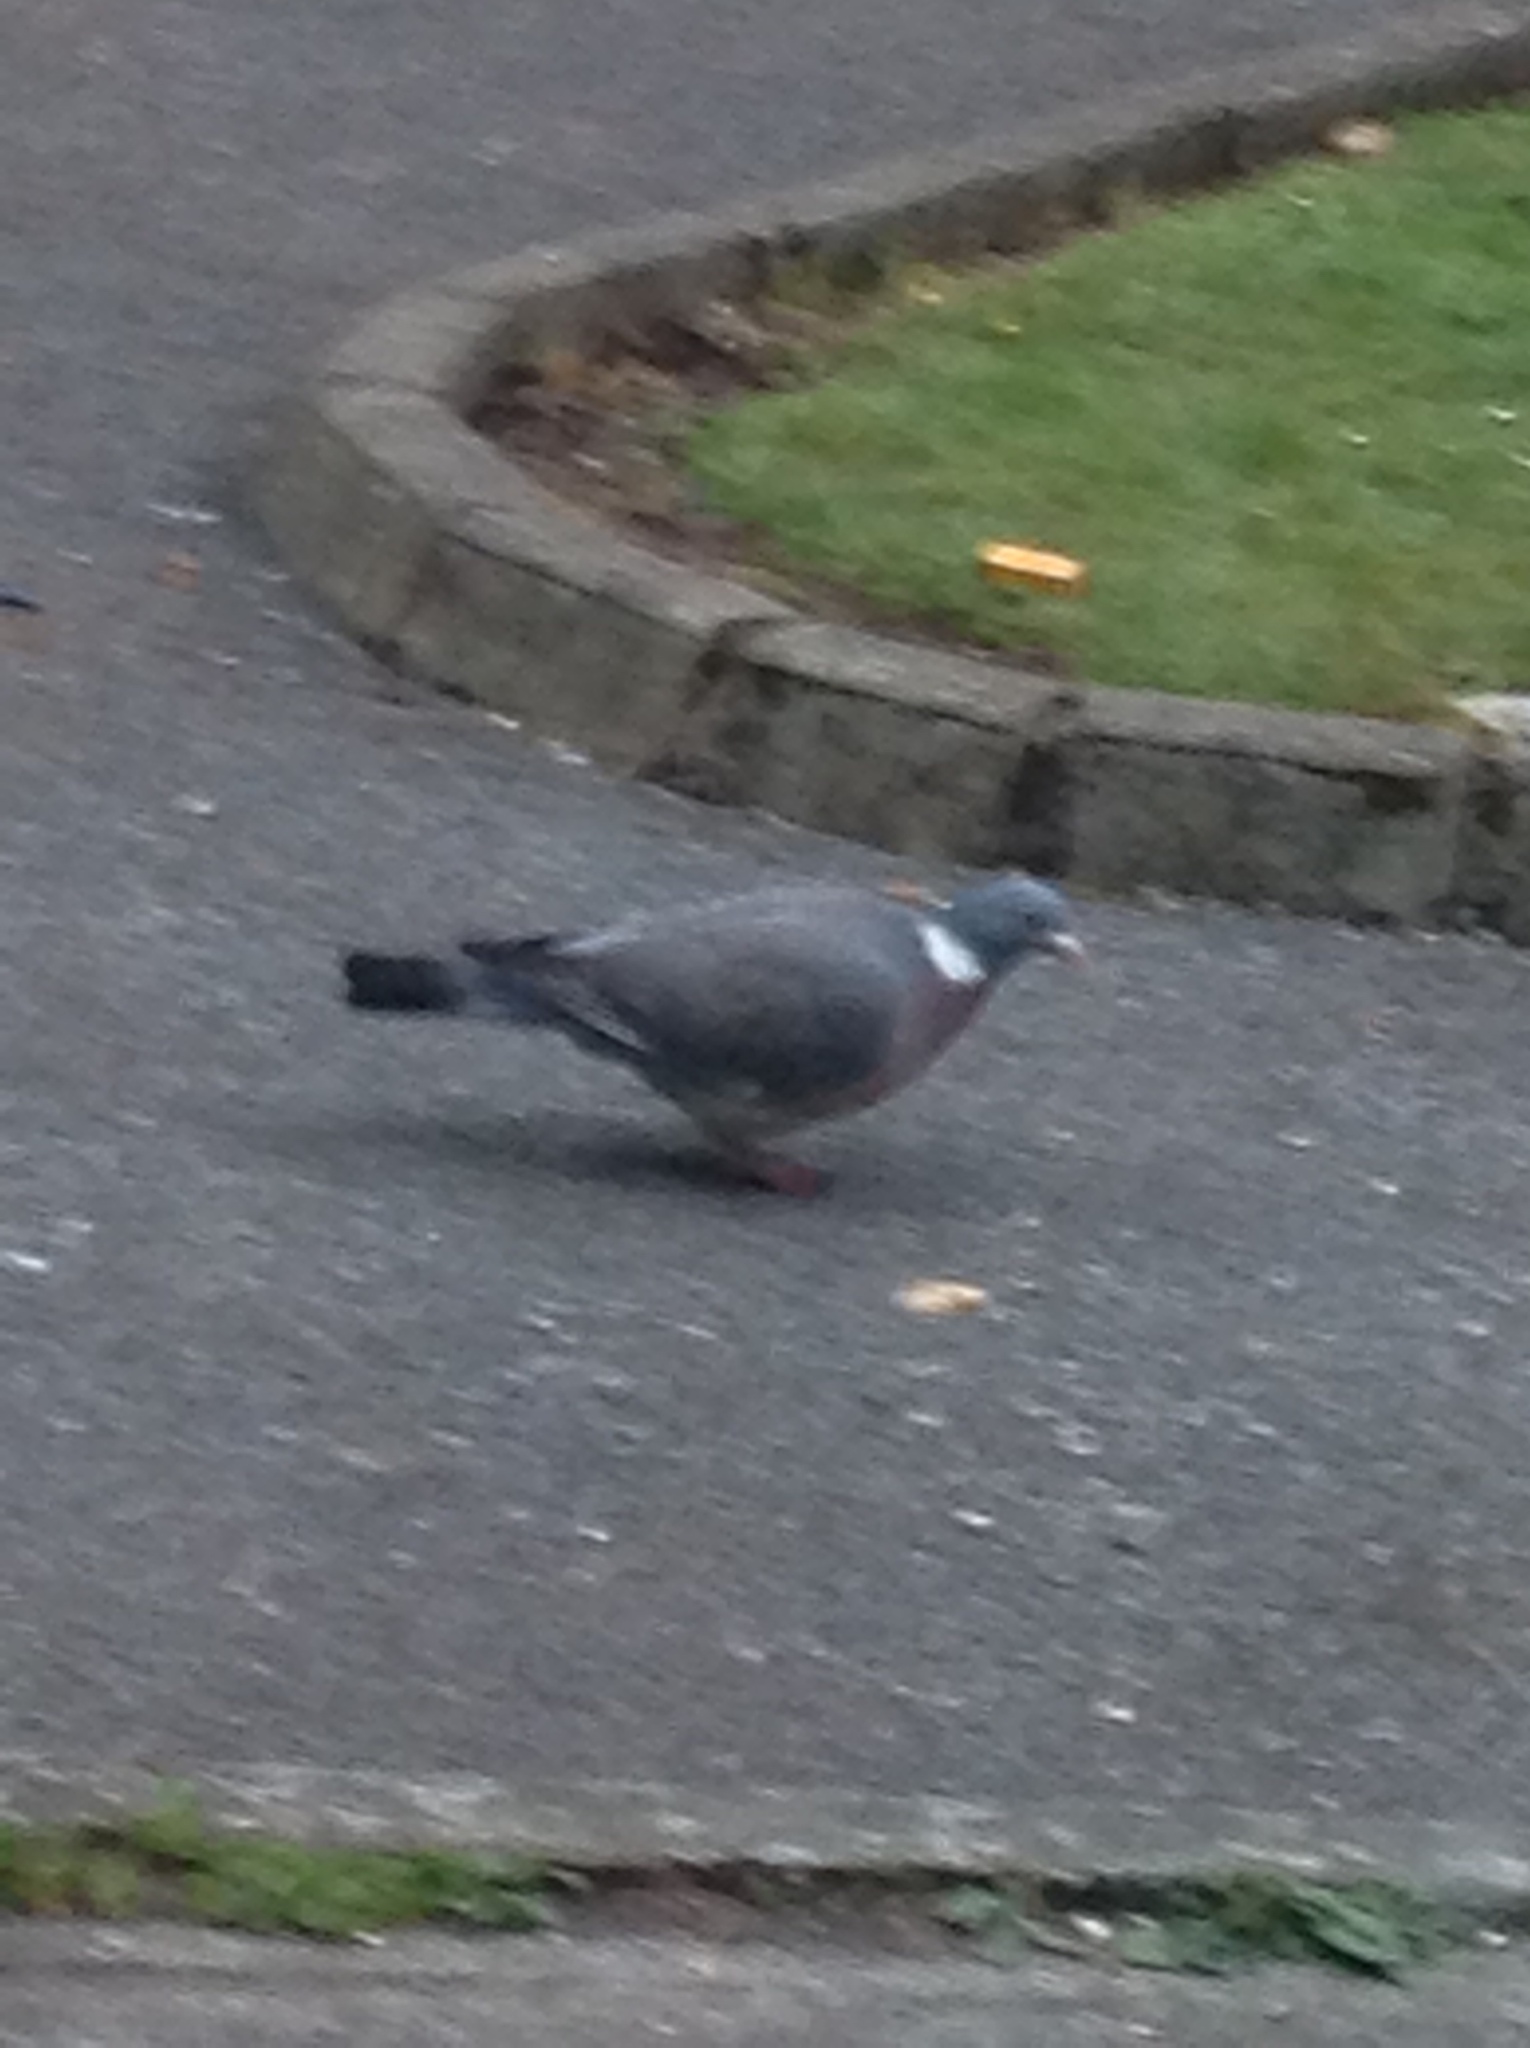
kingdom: Animalia
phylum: Chordata
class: Aves
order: Columbiformes
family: Columbidae
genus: Columba
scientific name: Columba palumbus
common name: Common wood pigeon
